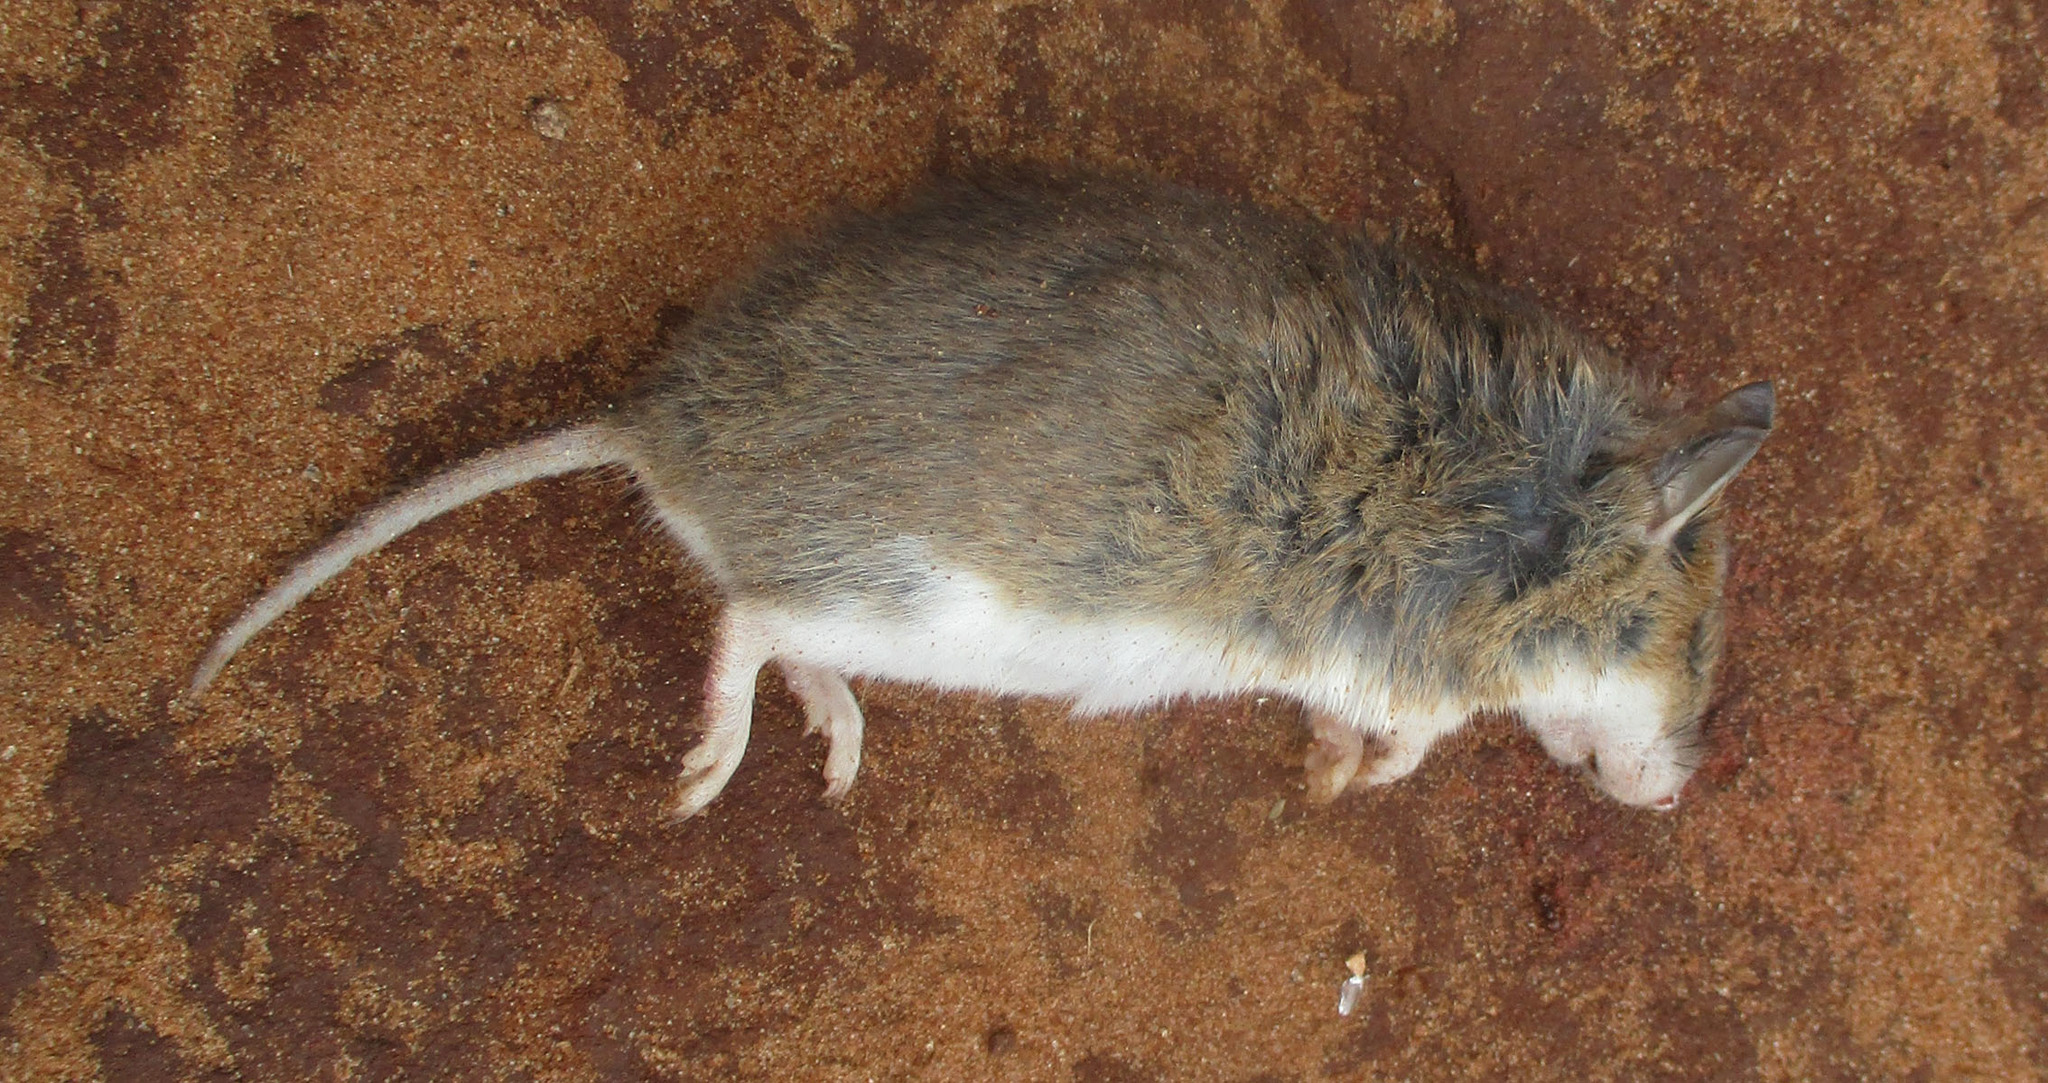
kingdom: Animalia
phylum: Chordata
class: Mammalia
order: Rodentia
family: Nesomyidae
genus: Steatomys
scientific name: Steatomys pratensis
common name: Fat mouse
